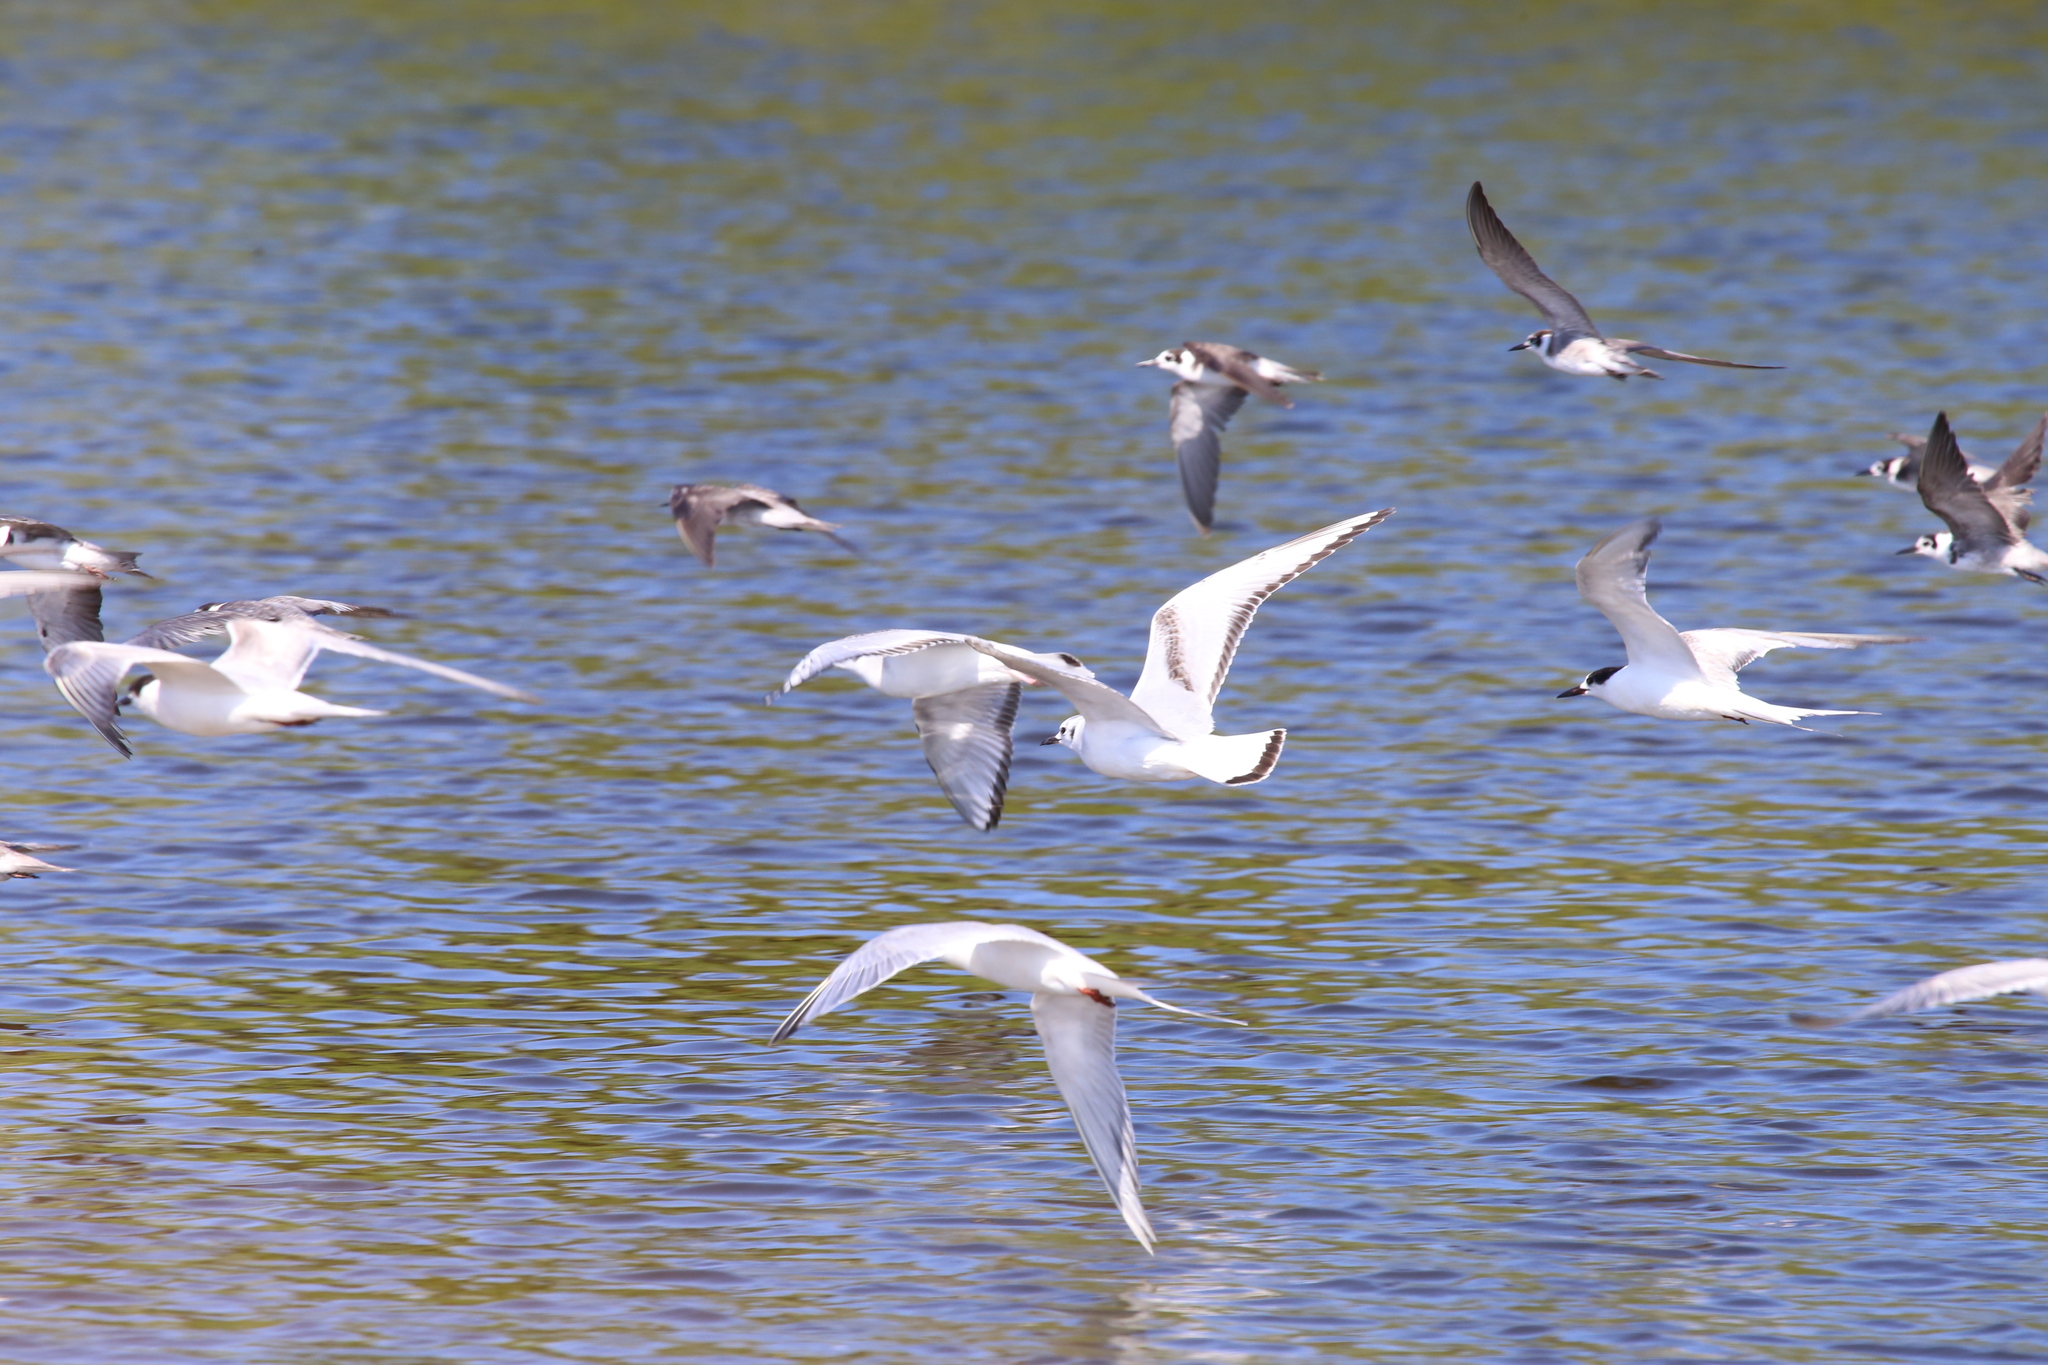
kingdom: Animalia
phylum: Chordata
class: Aves
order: Charadriiformes
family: Laridae
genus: Chroicocephalus
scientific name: Chroicocephalus philadelphia
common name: Bonaparte's gull
